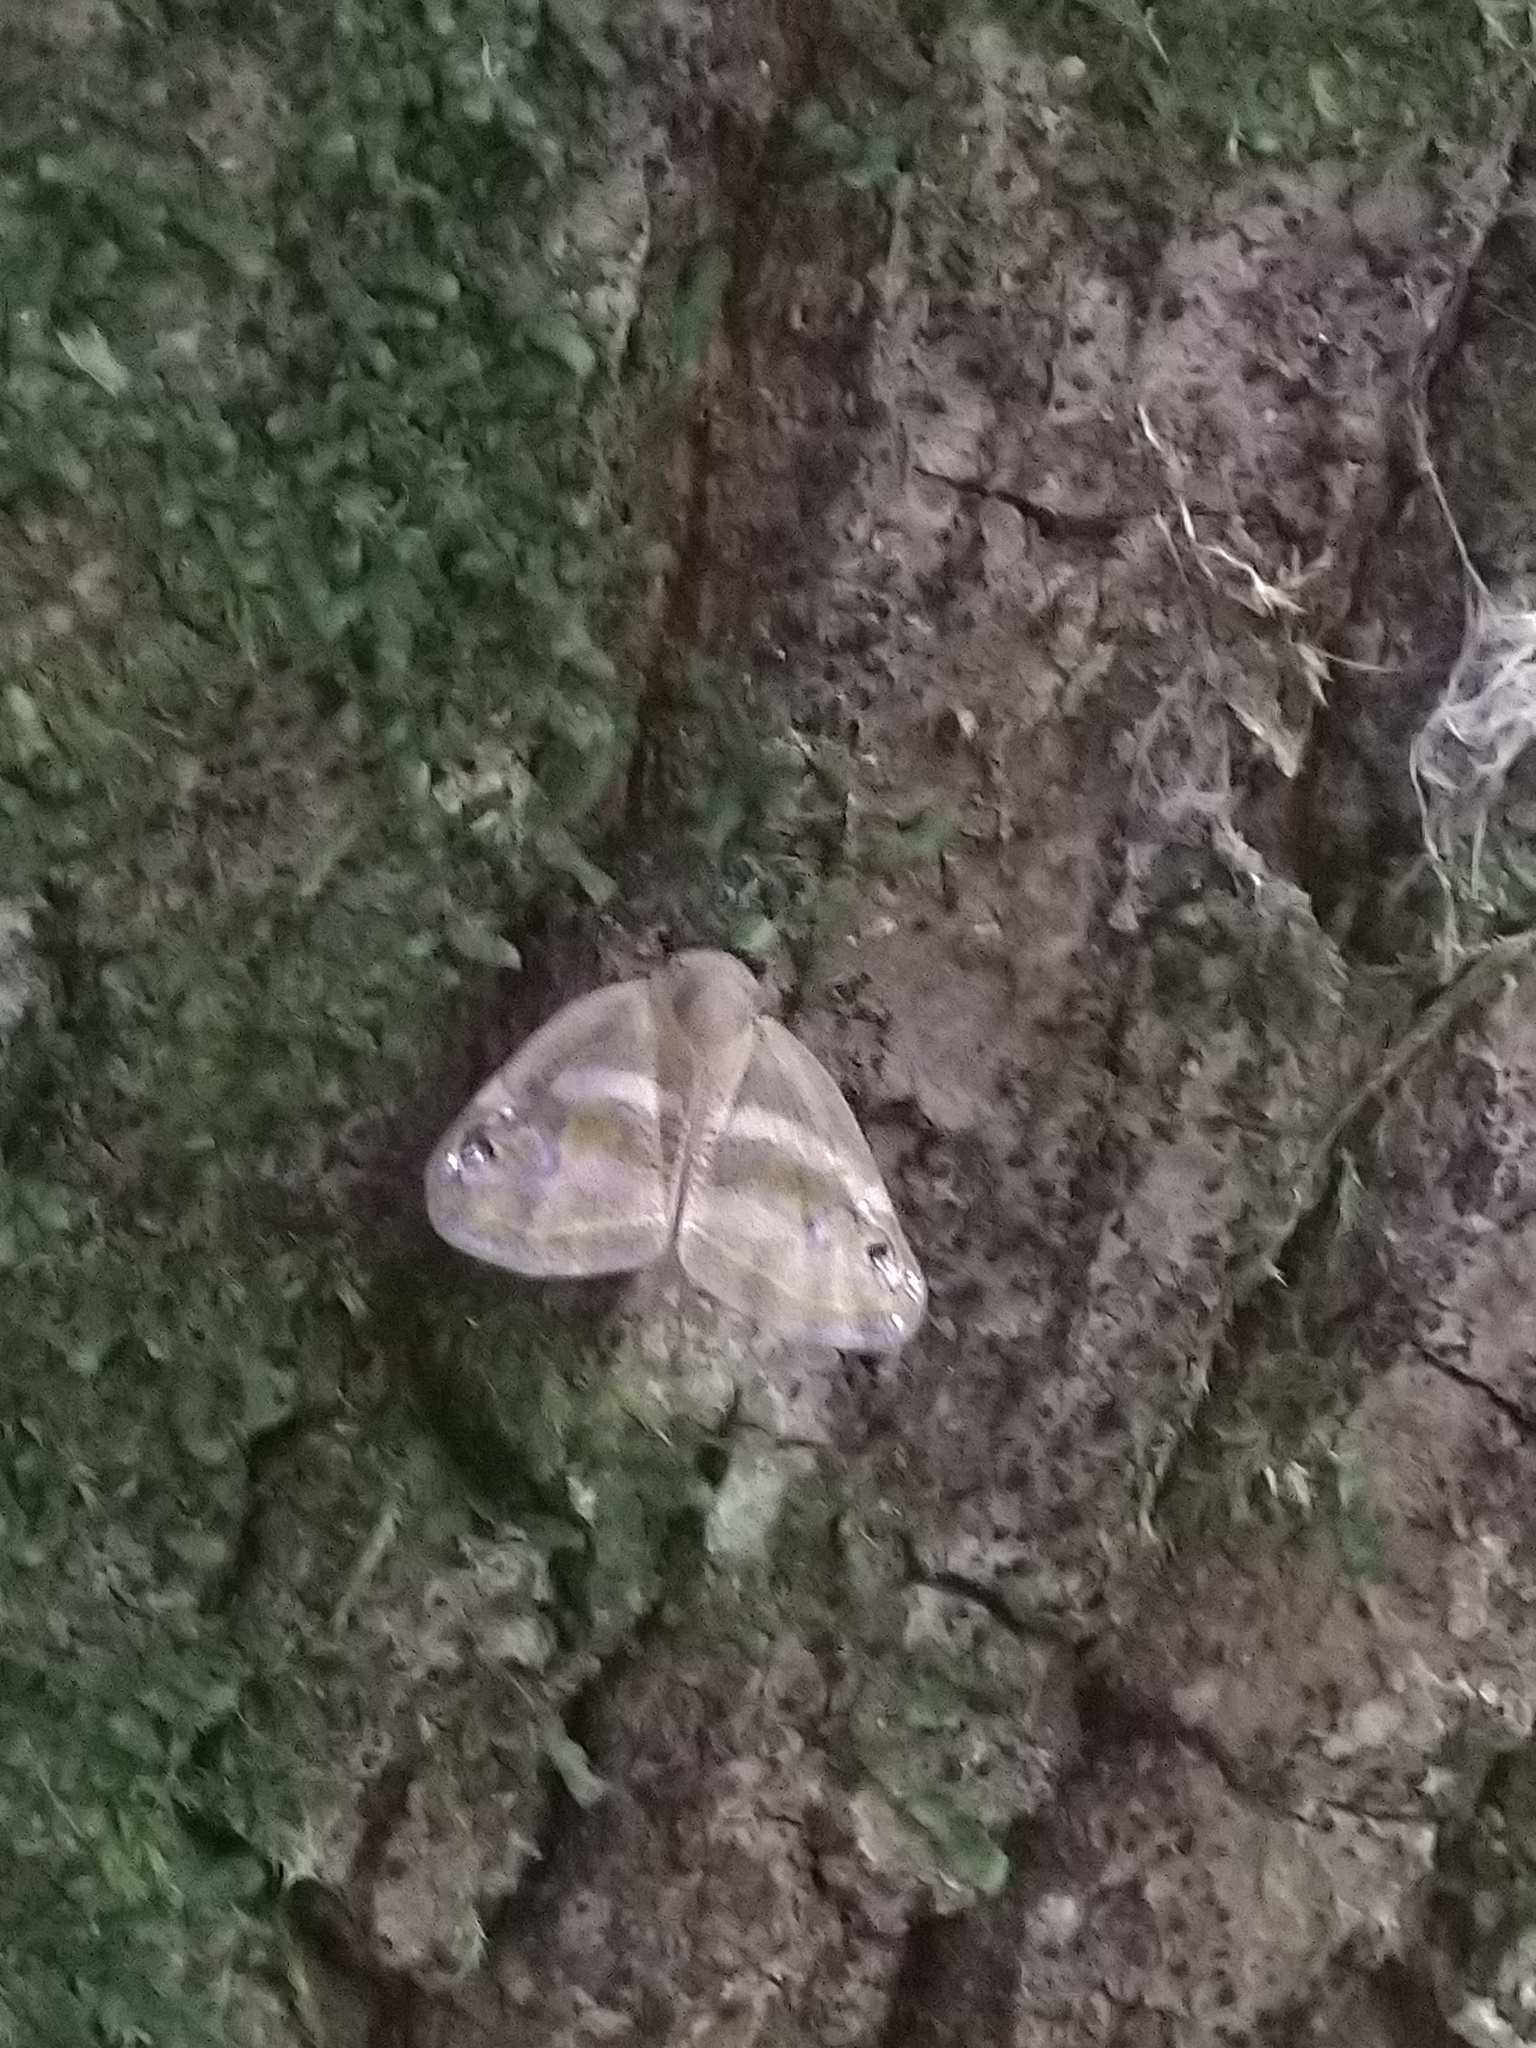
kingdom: Animalia
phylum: Arthropoda
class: Insecta
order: Hemiptera
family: Ricaniidae
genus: Orosanga
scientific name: Orosanga japonica
